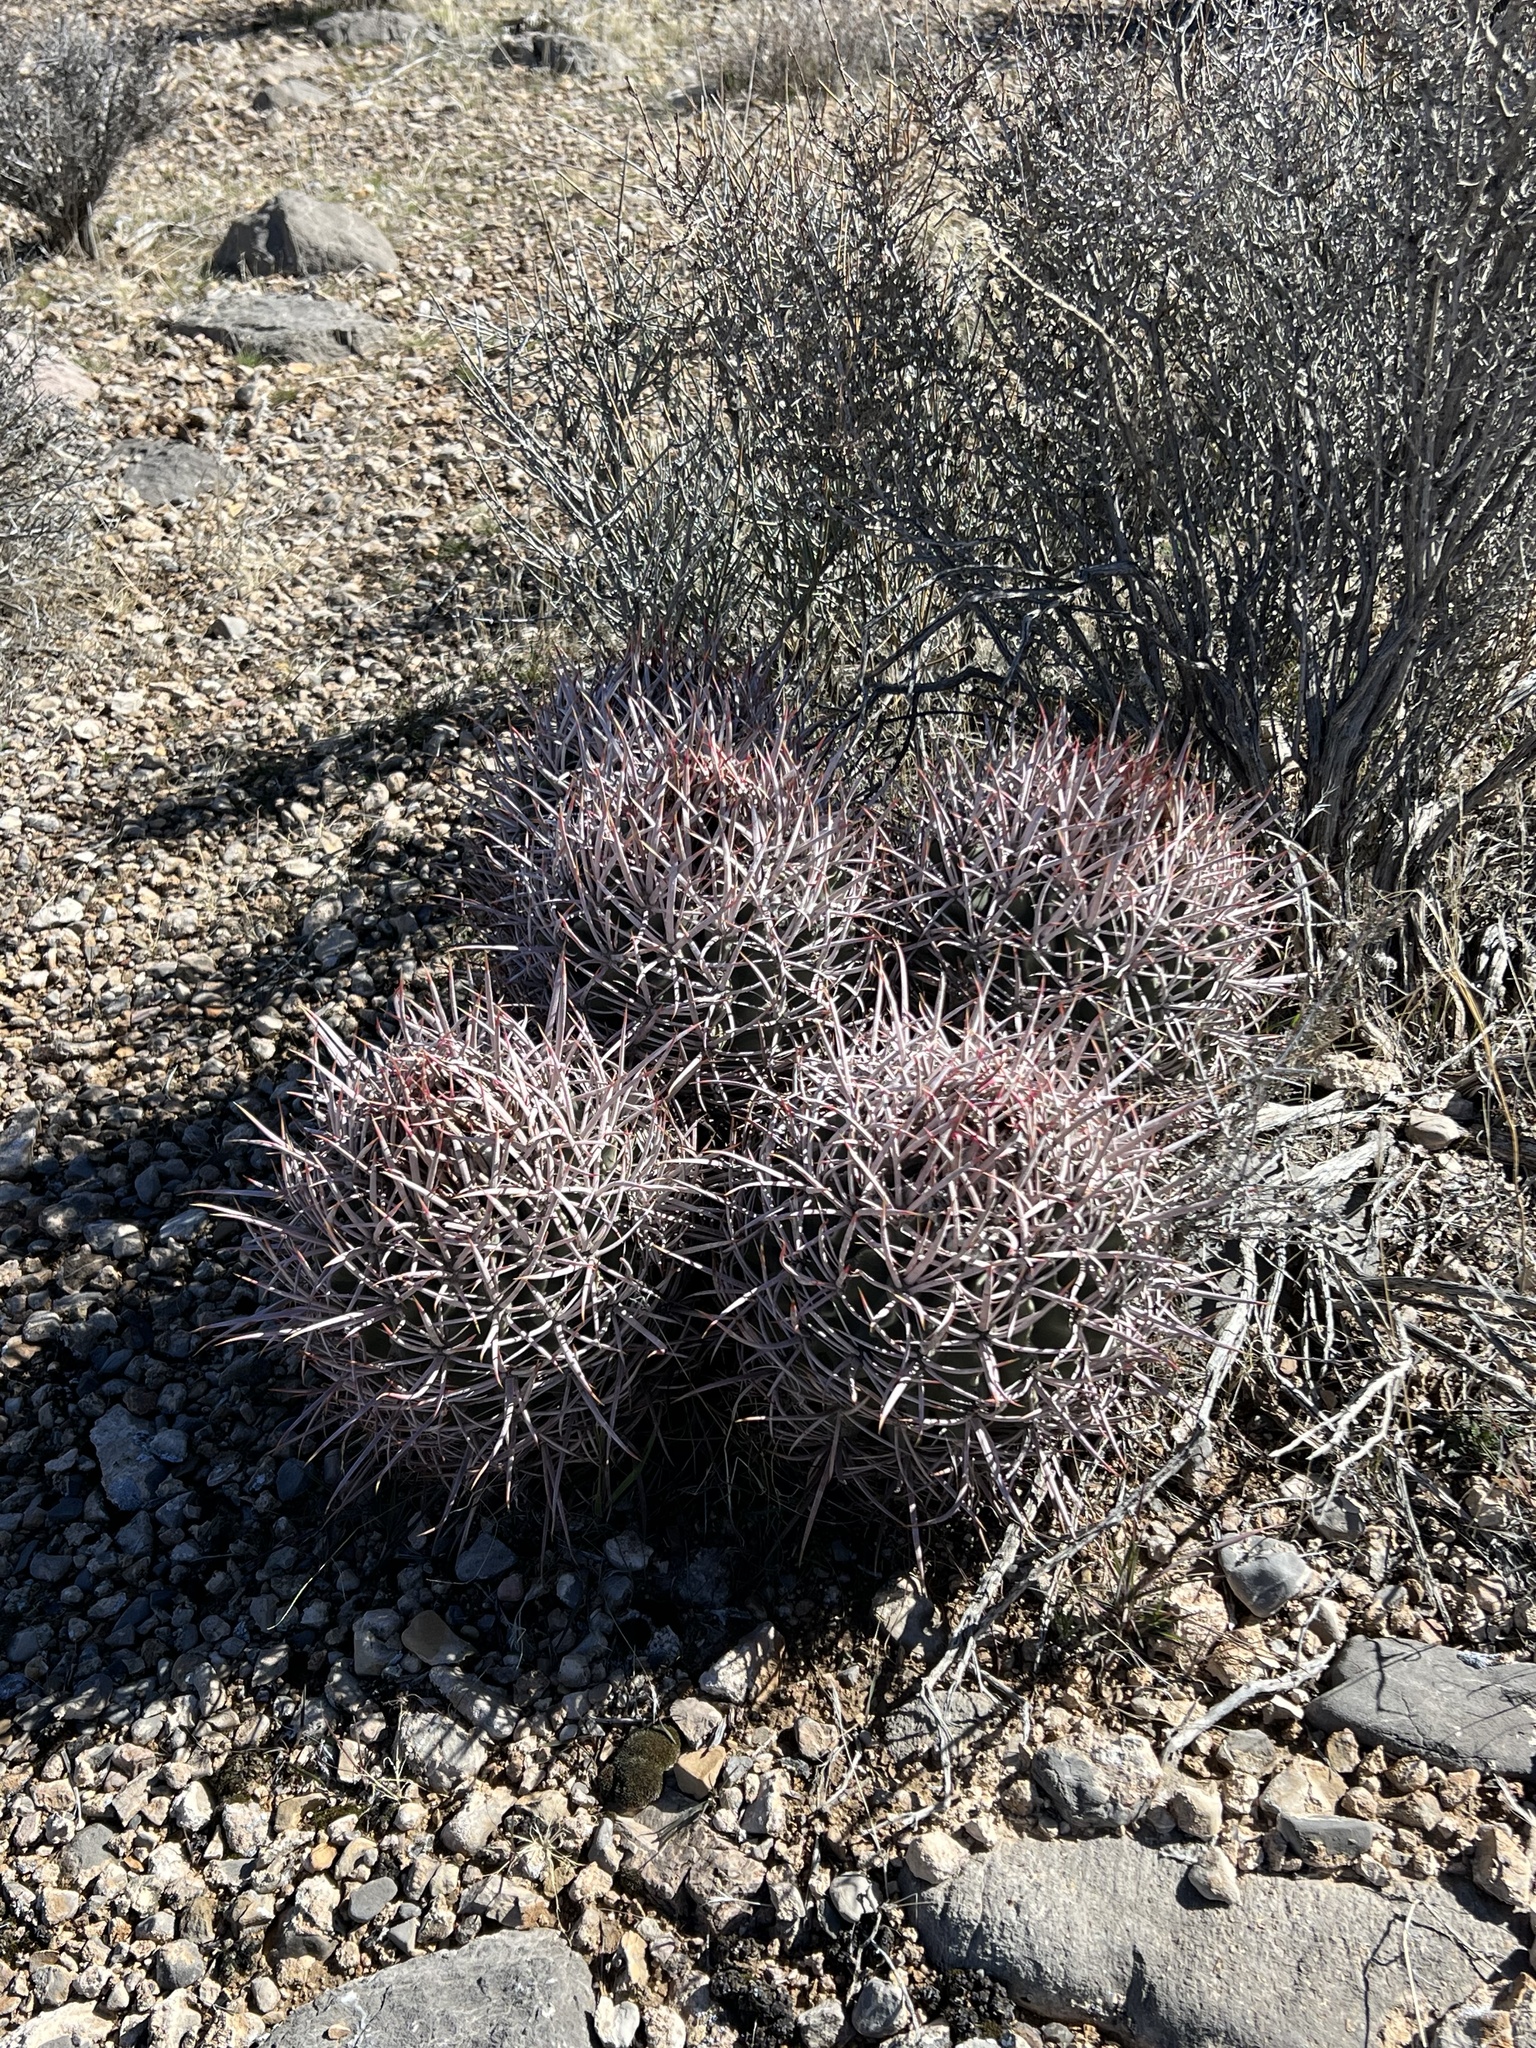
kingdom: Plantae
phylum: Tracheophyta
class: Magnoliopsida
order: Caryophyllales
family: Cactaceae
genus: Echinocactus
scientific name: Echinocactus polycephalus
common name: Cottontop cactus
